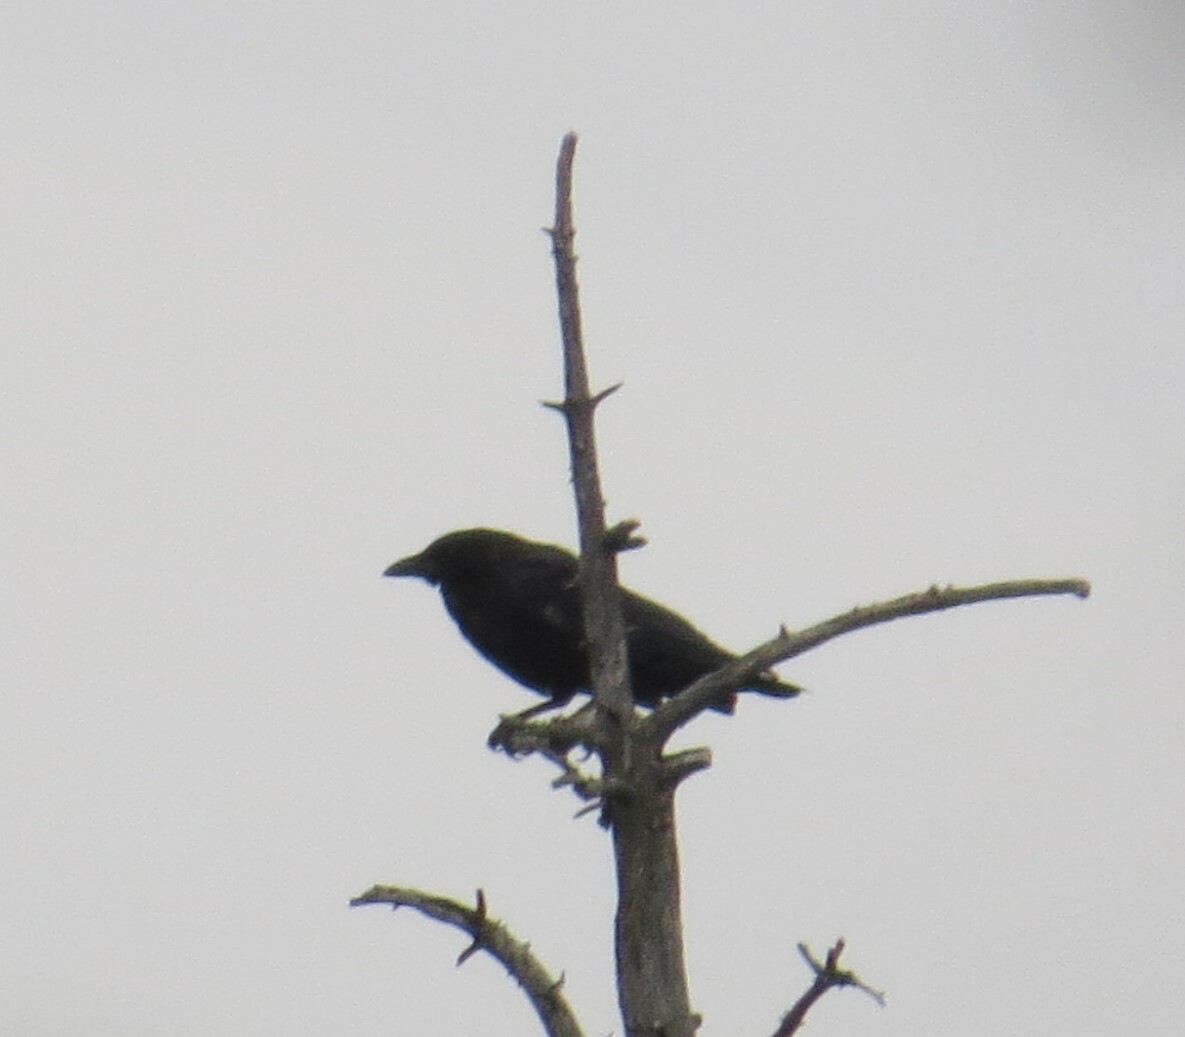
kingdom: Animalia
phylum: Chordata
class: Aves
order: Passeriformes
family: Corvidae
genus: Corvus
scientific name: Corvus brachyrhynchos
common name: American crow
